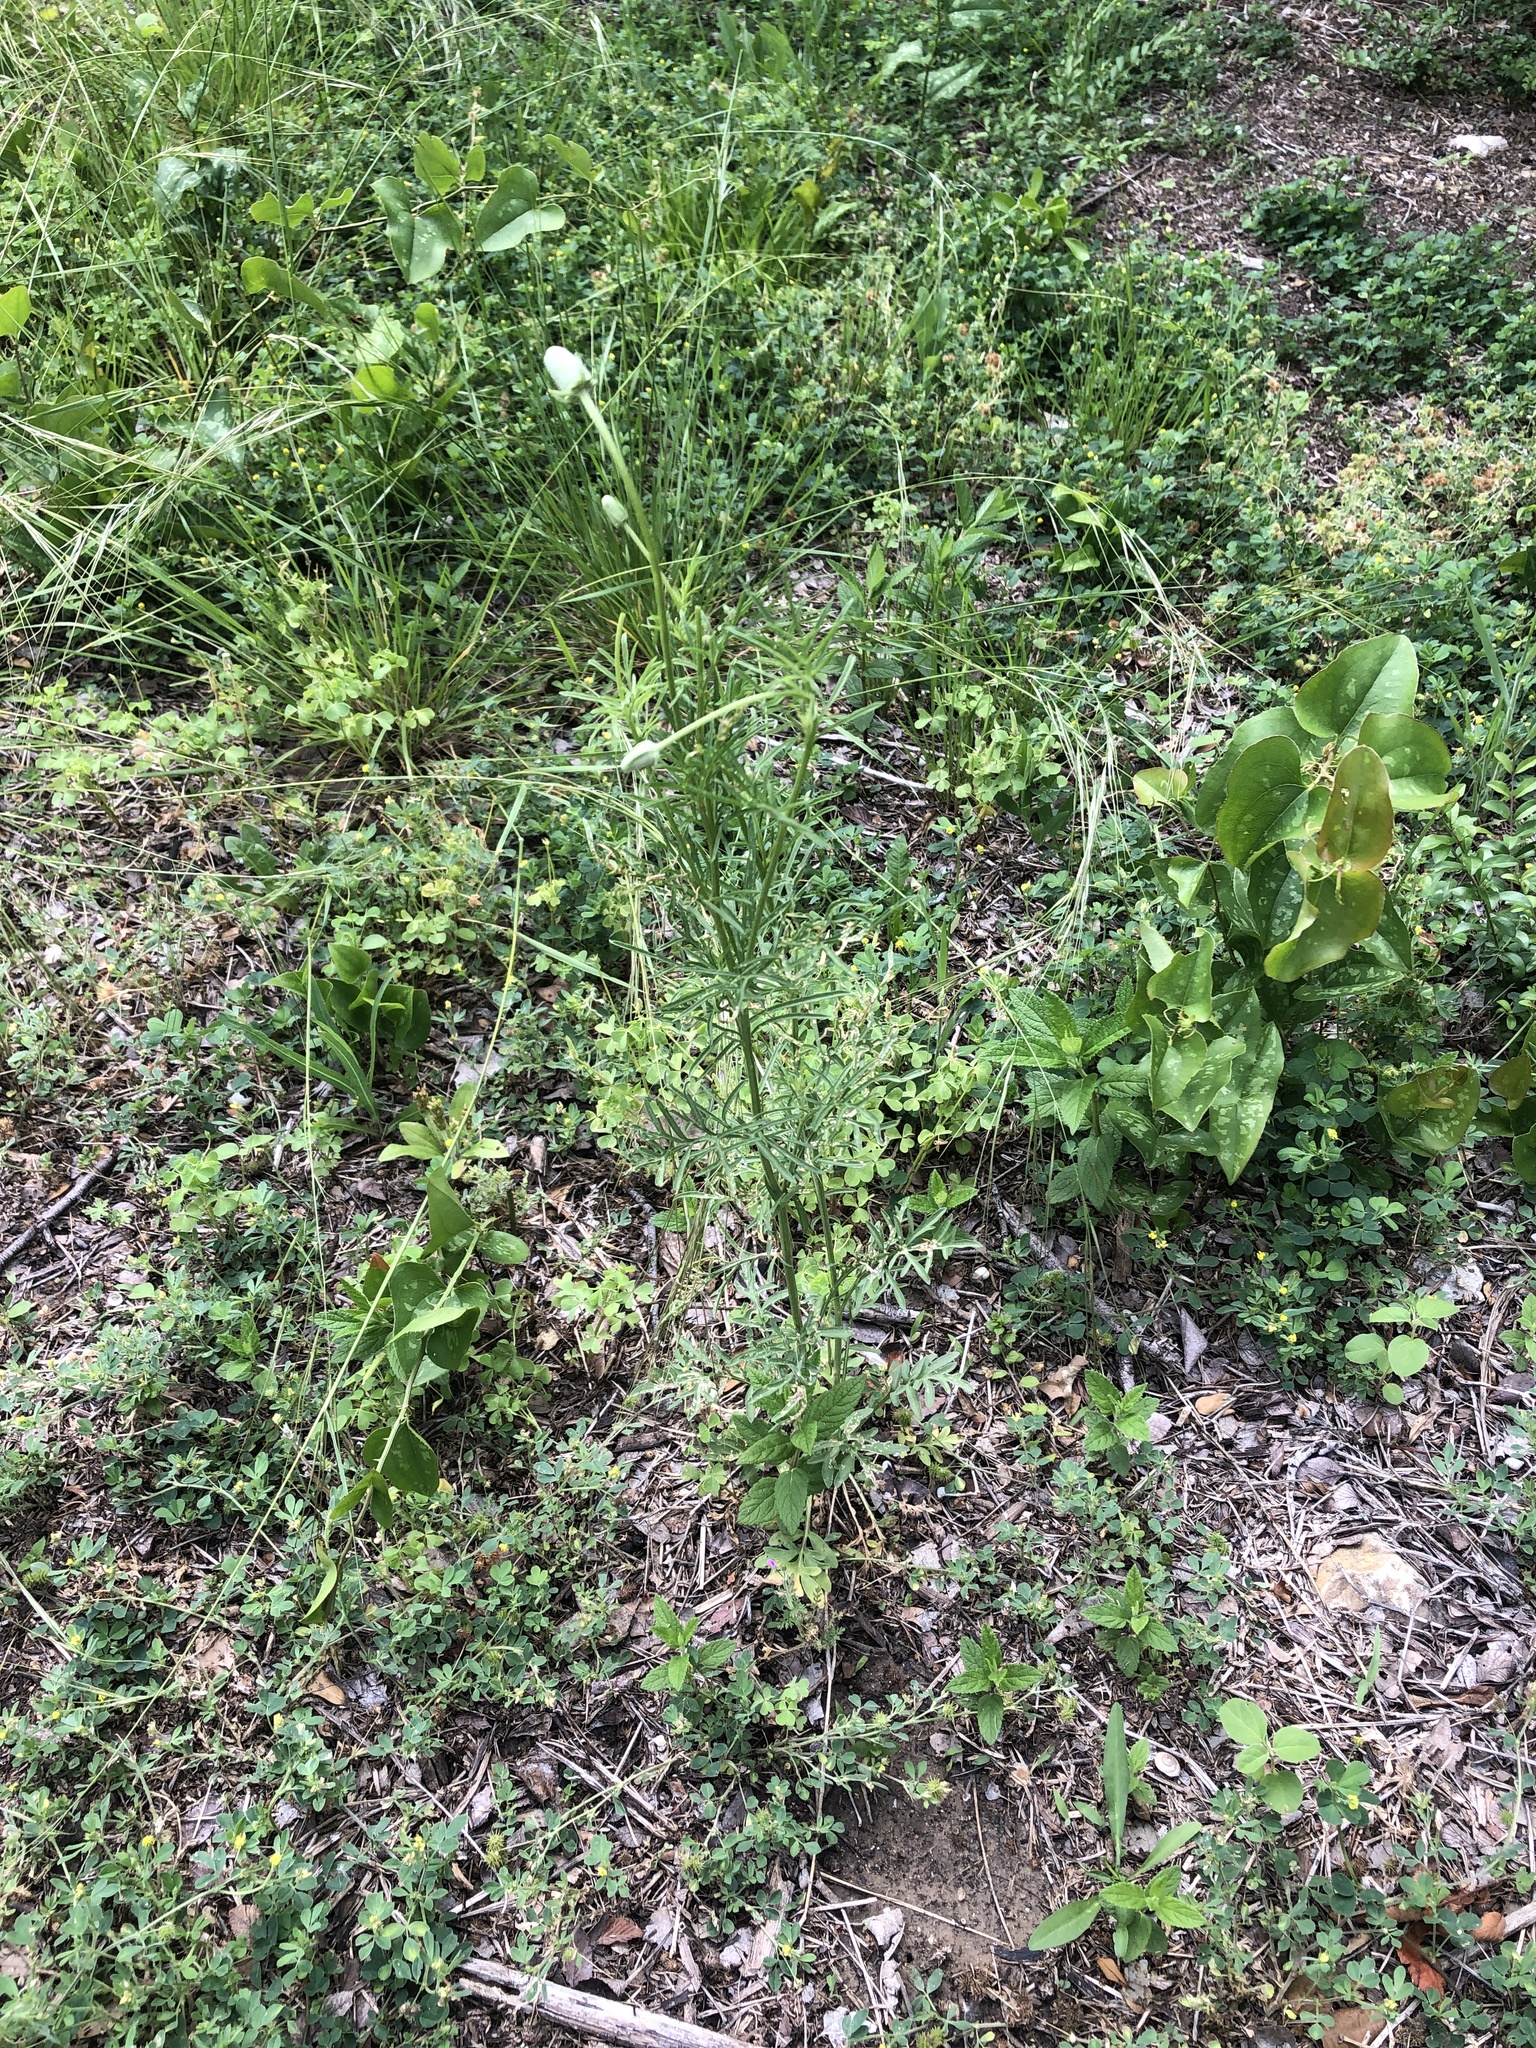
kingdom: Plantae
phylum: Tracheophyta
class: Magnoliopsida
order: Asterales
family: Asteraceae
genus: Ratibida
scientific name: Ratibida columnifera
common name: Prairie coneflower
